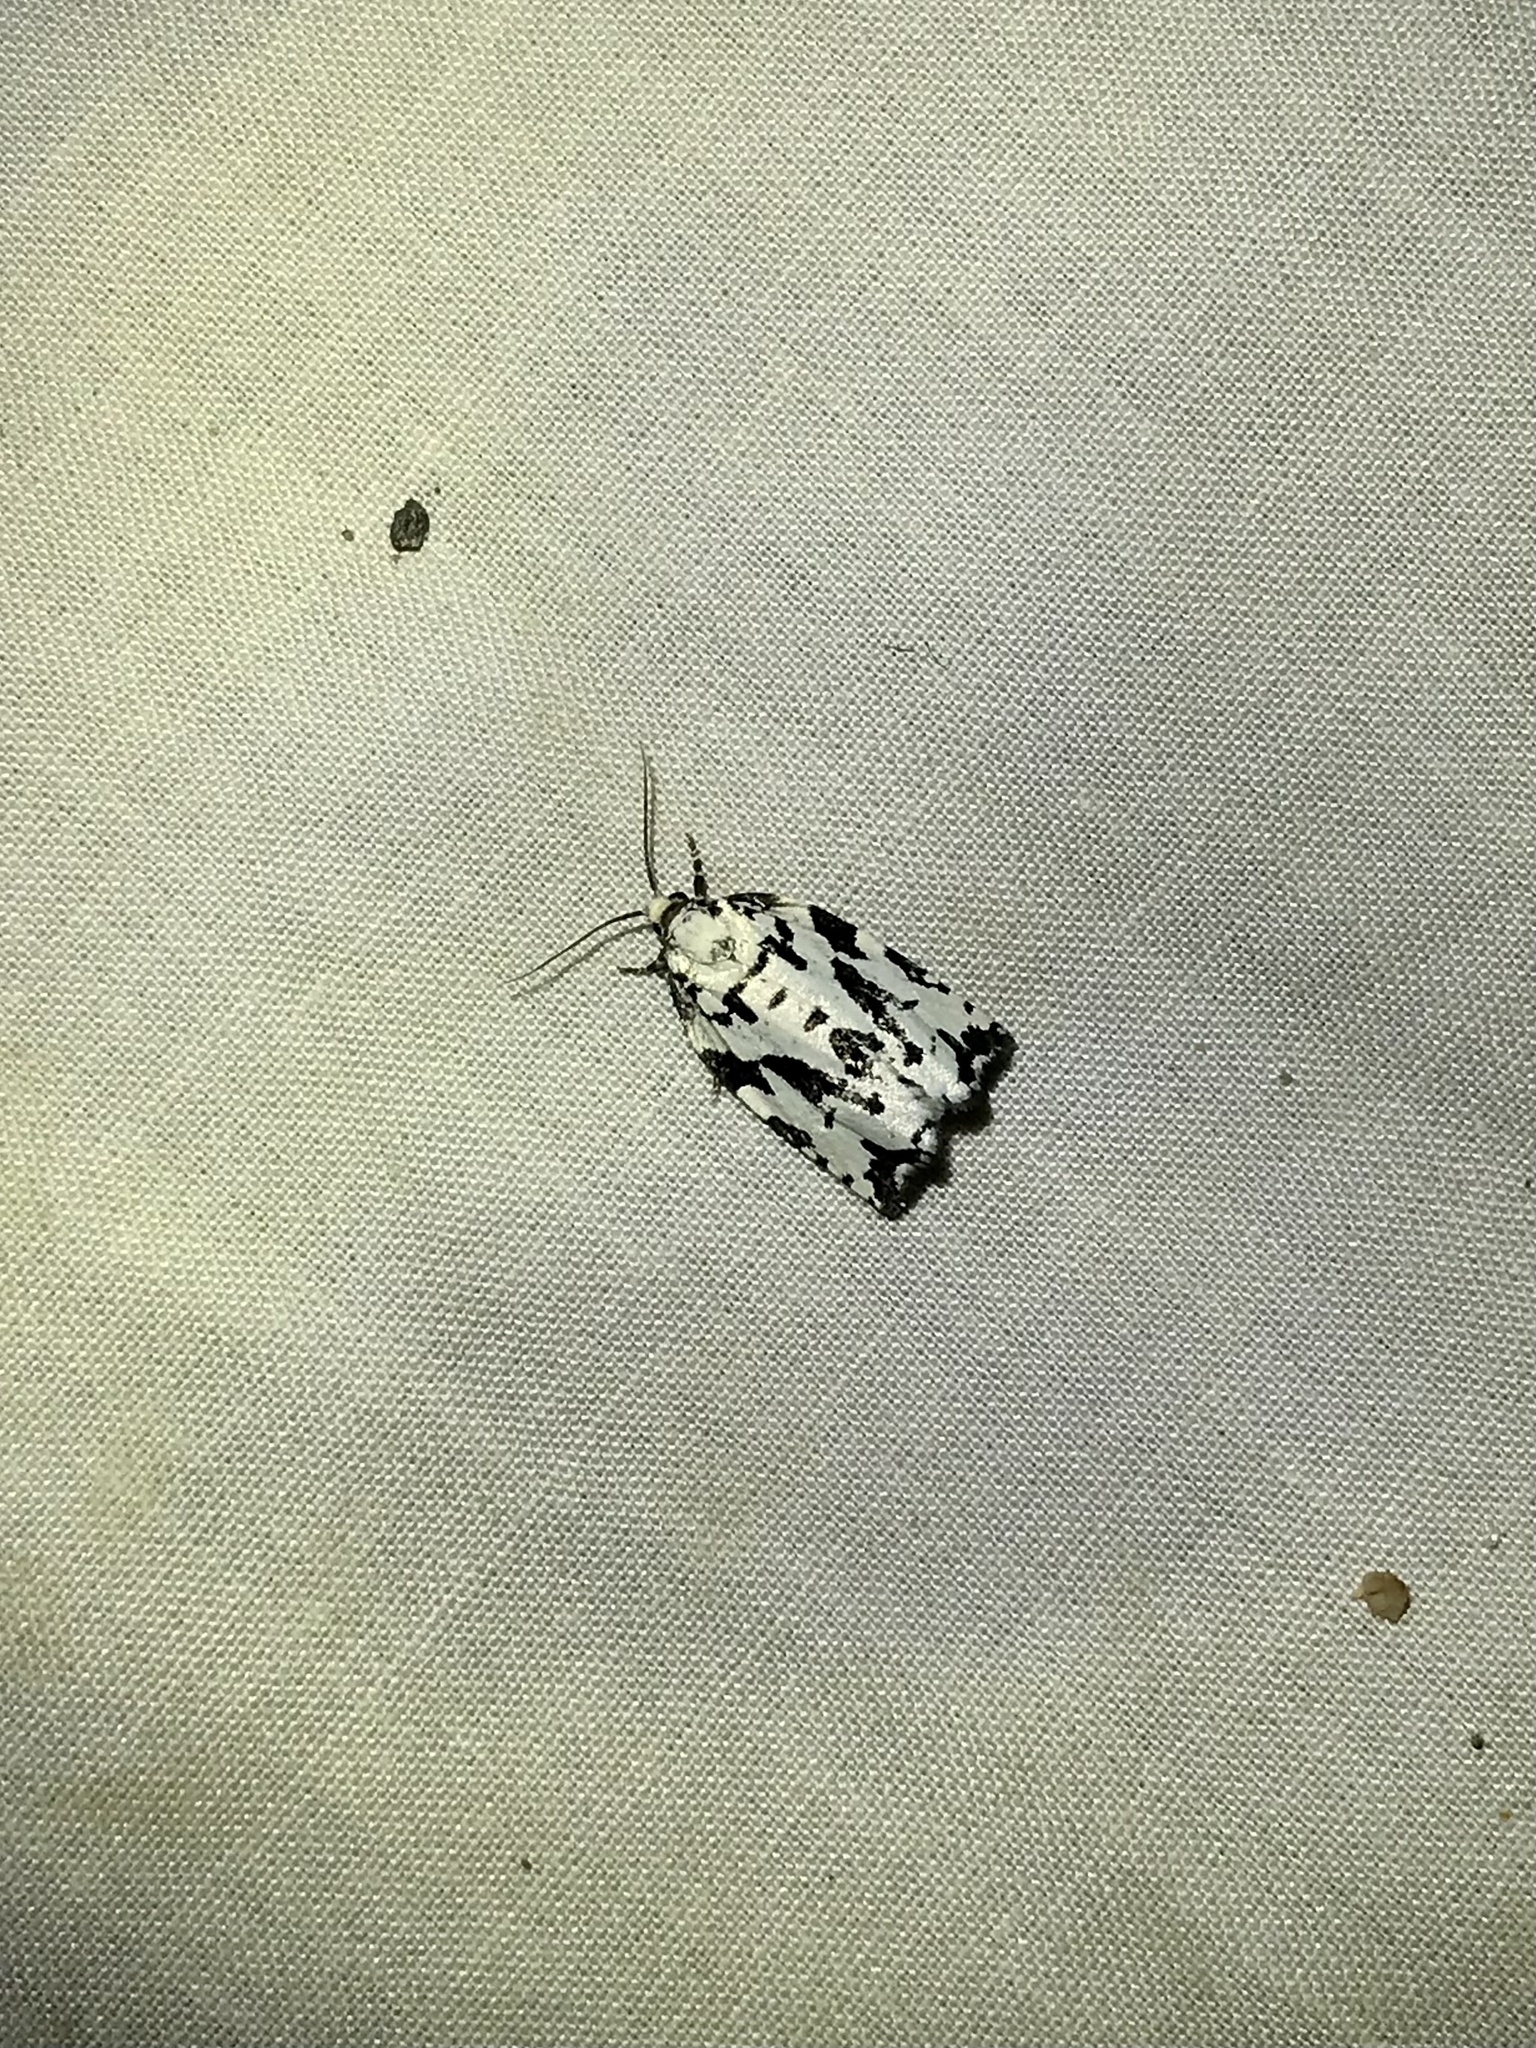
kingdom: Animalia
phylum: Arthropoda
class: Insecta
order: Lepidoptera
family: Tortricidae
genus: Archips
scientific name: Archips dissitana
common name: Boldly-marked archips moth
